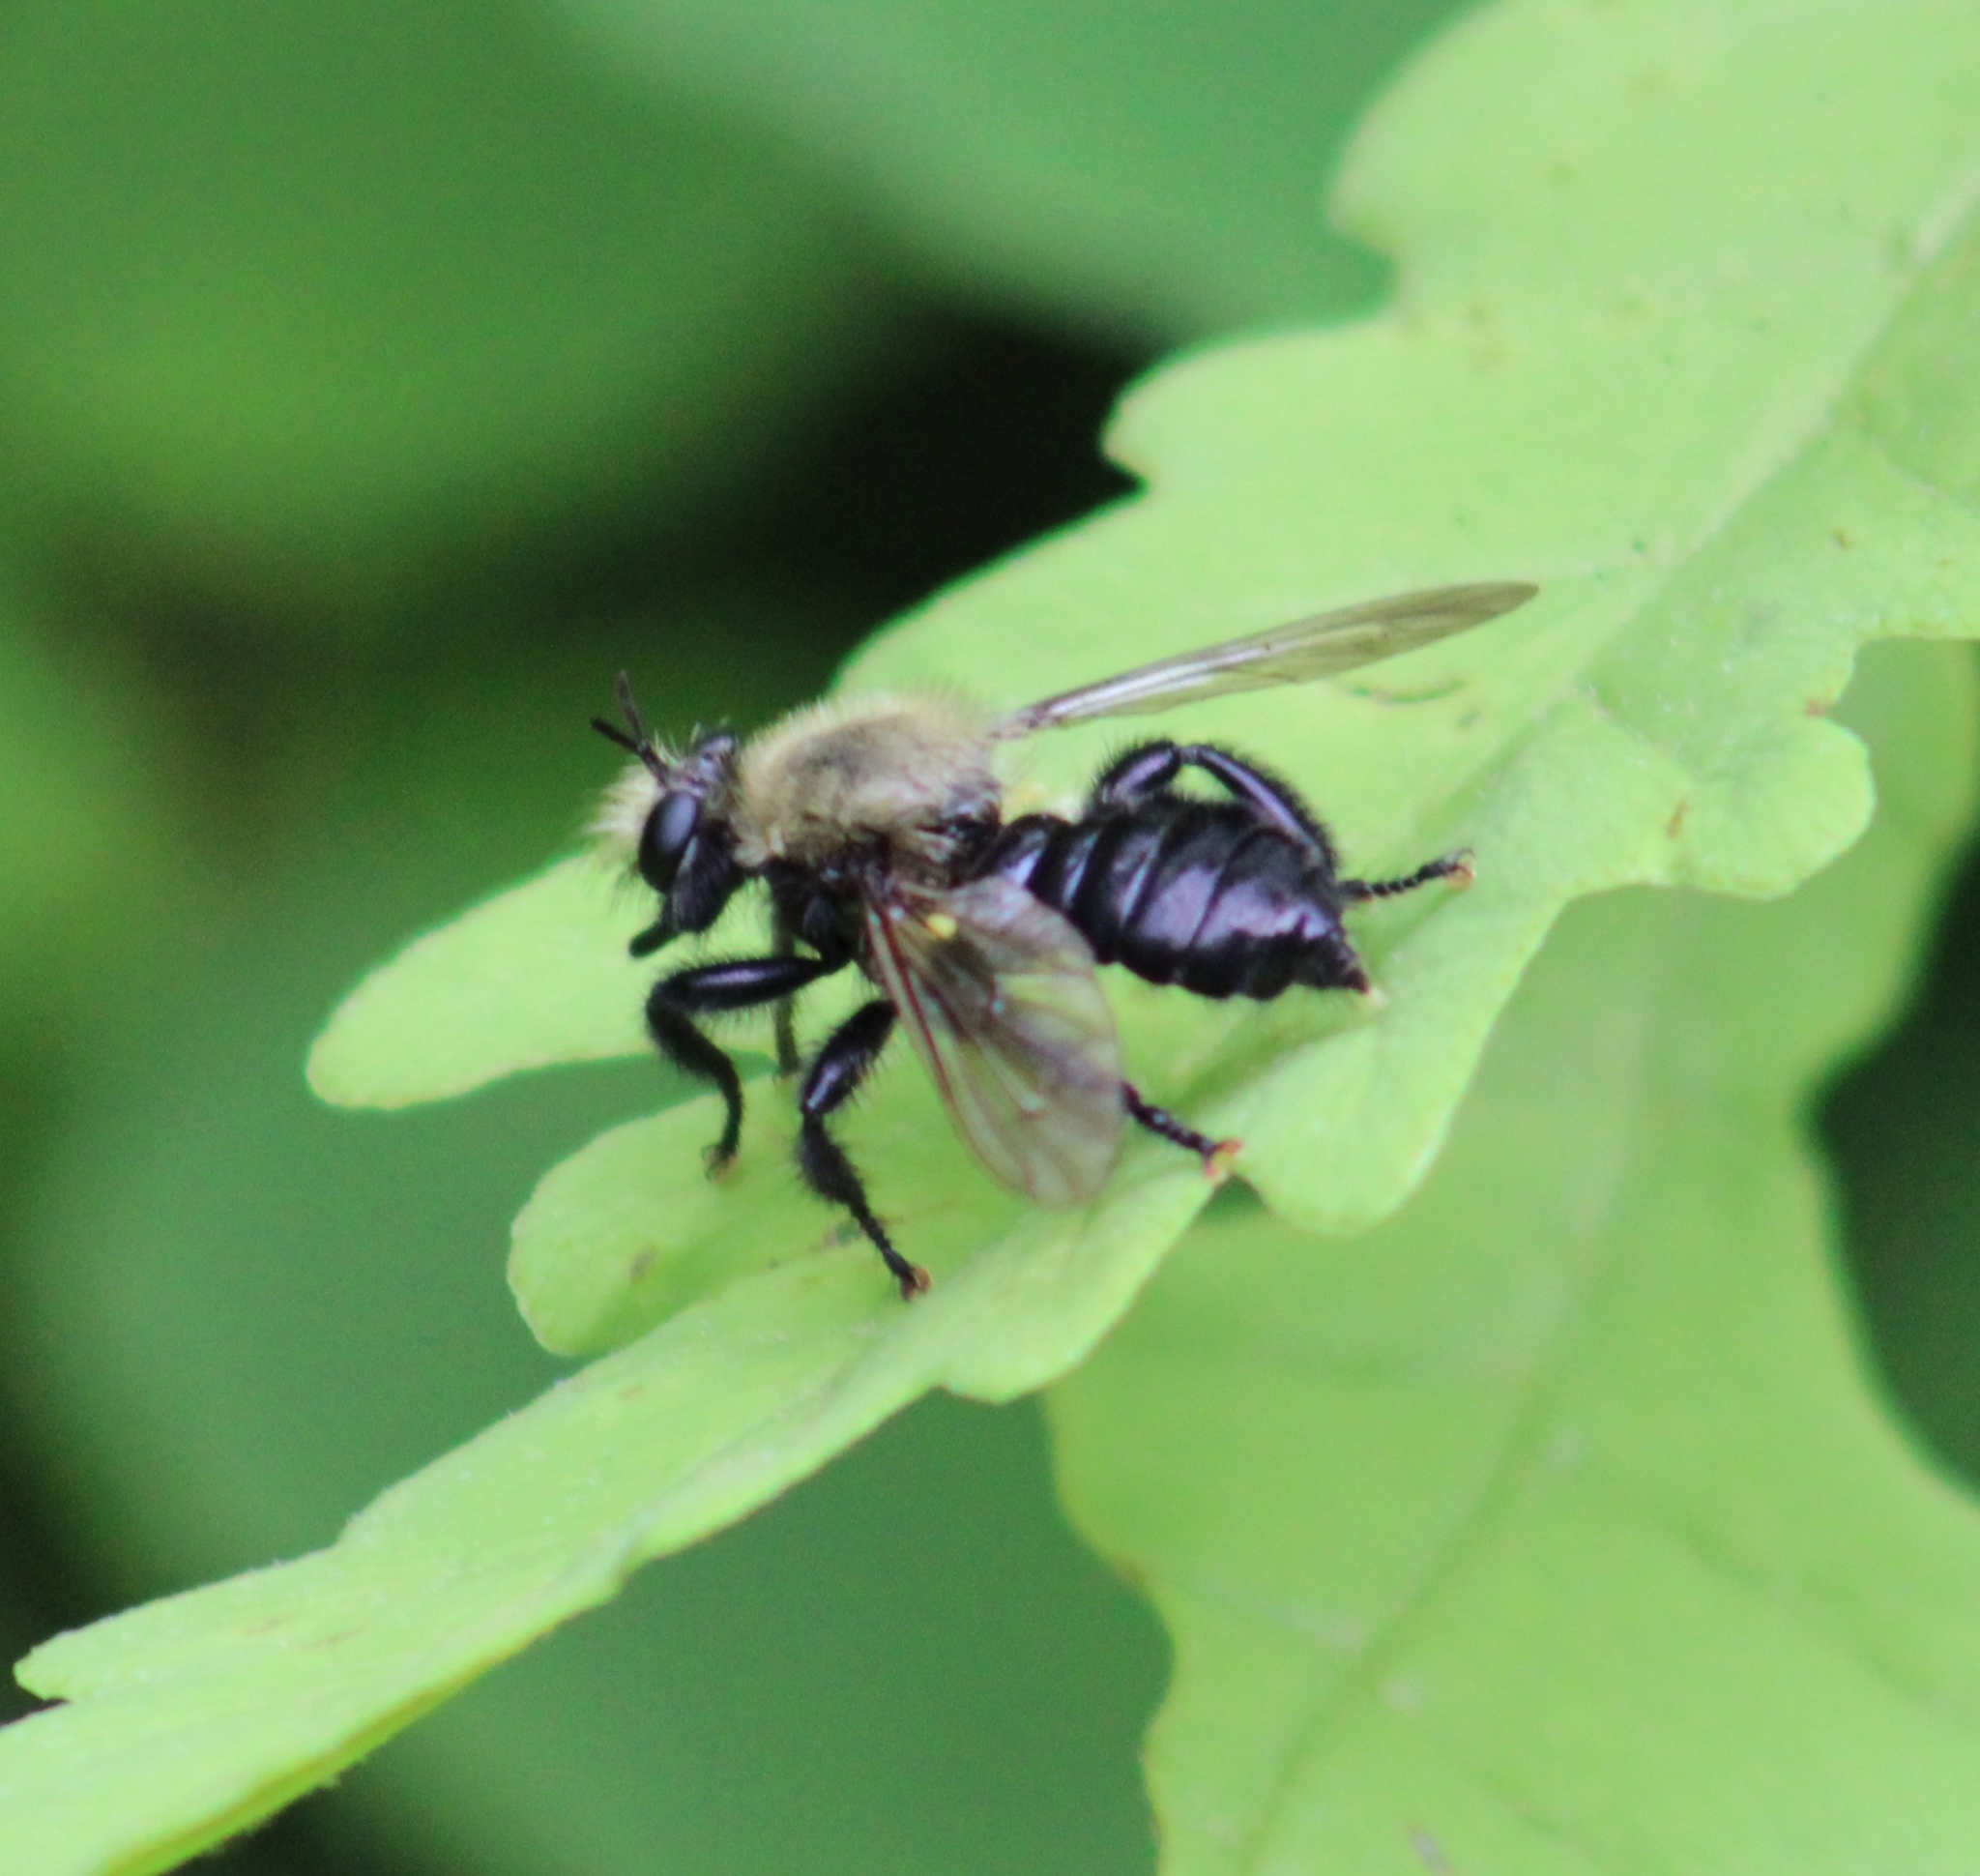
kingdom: Animalia
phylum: Arthropoda
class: Insecta
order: Diptera
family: Asilidae
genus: Laphria
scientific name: Laphria flavicollis
